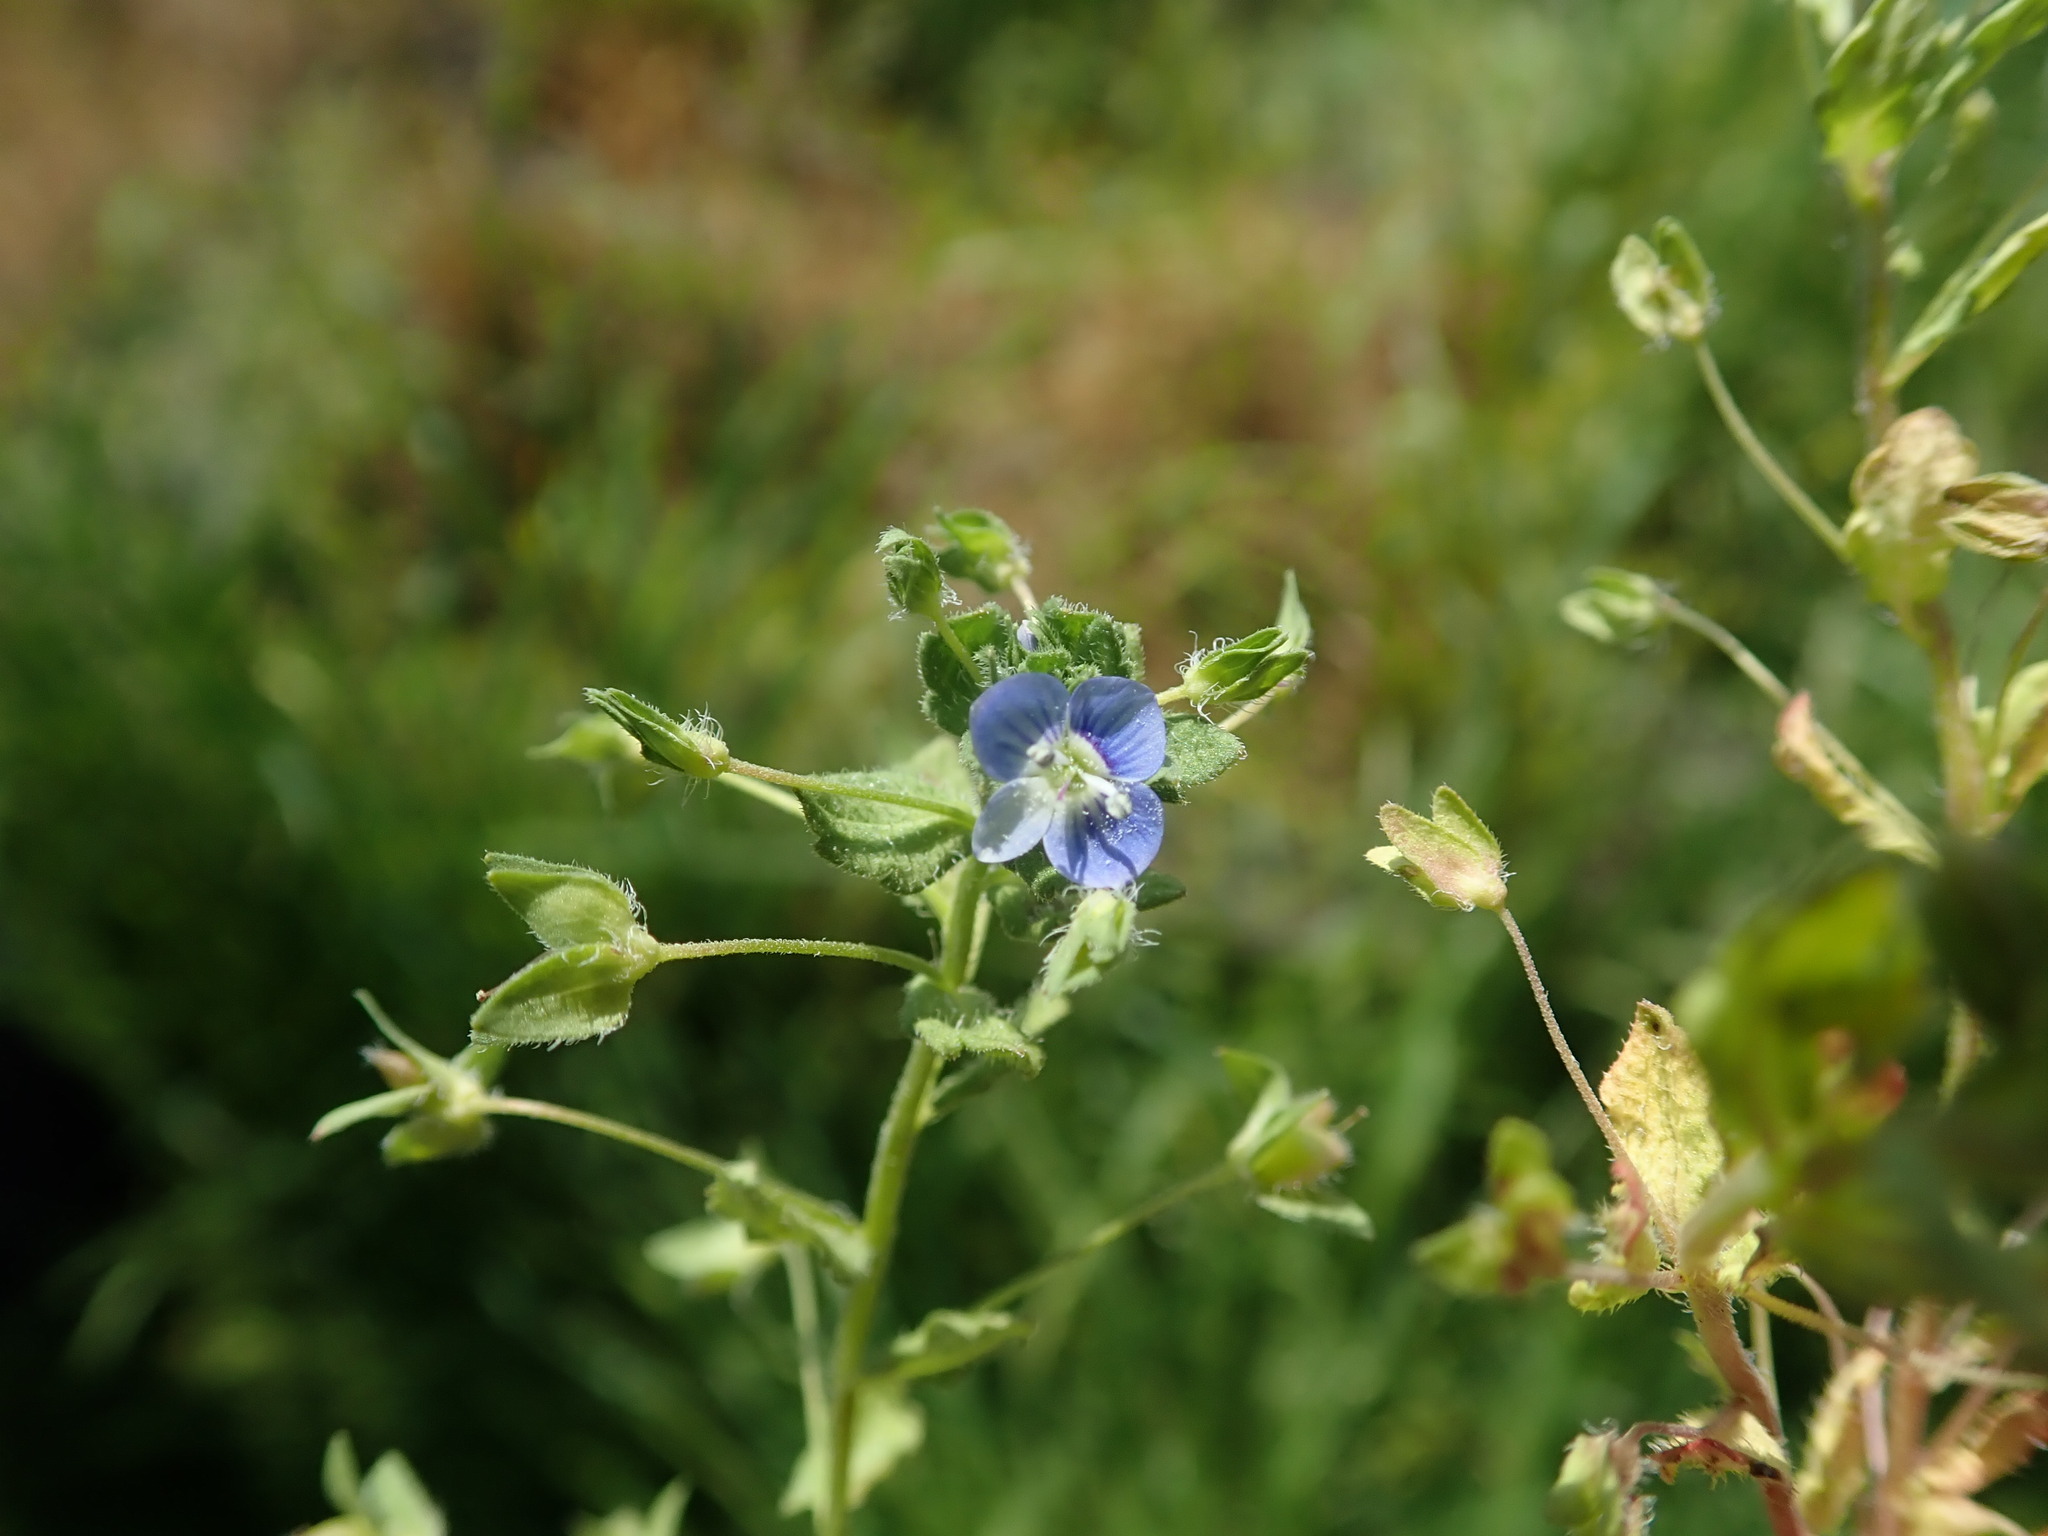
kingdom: Plantae
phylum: Tracheophyta
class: Magnoliopsida
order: Lamiales
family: Plantaginaceae
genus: Veronica
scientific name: Veronica persica
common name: Common field-speedwell
